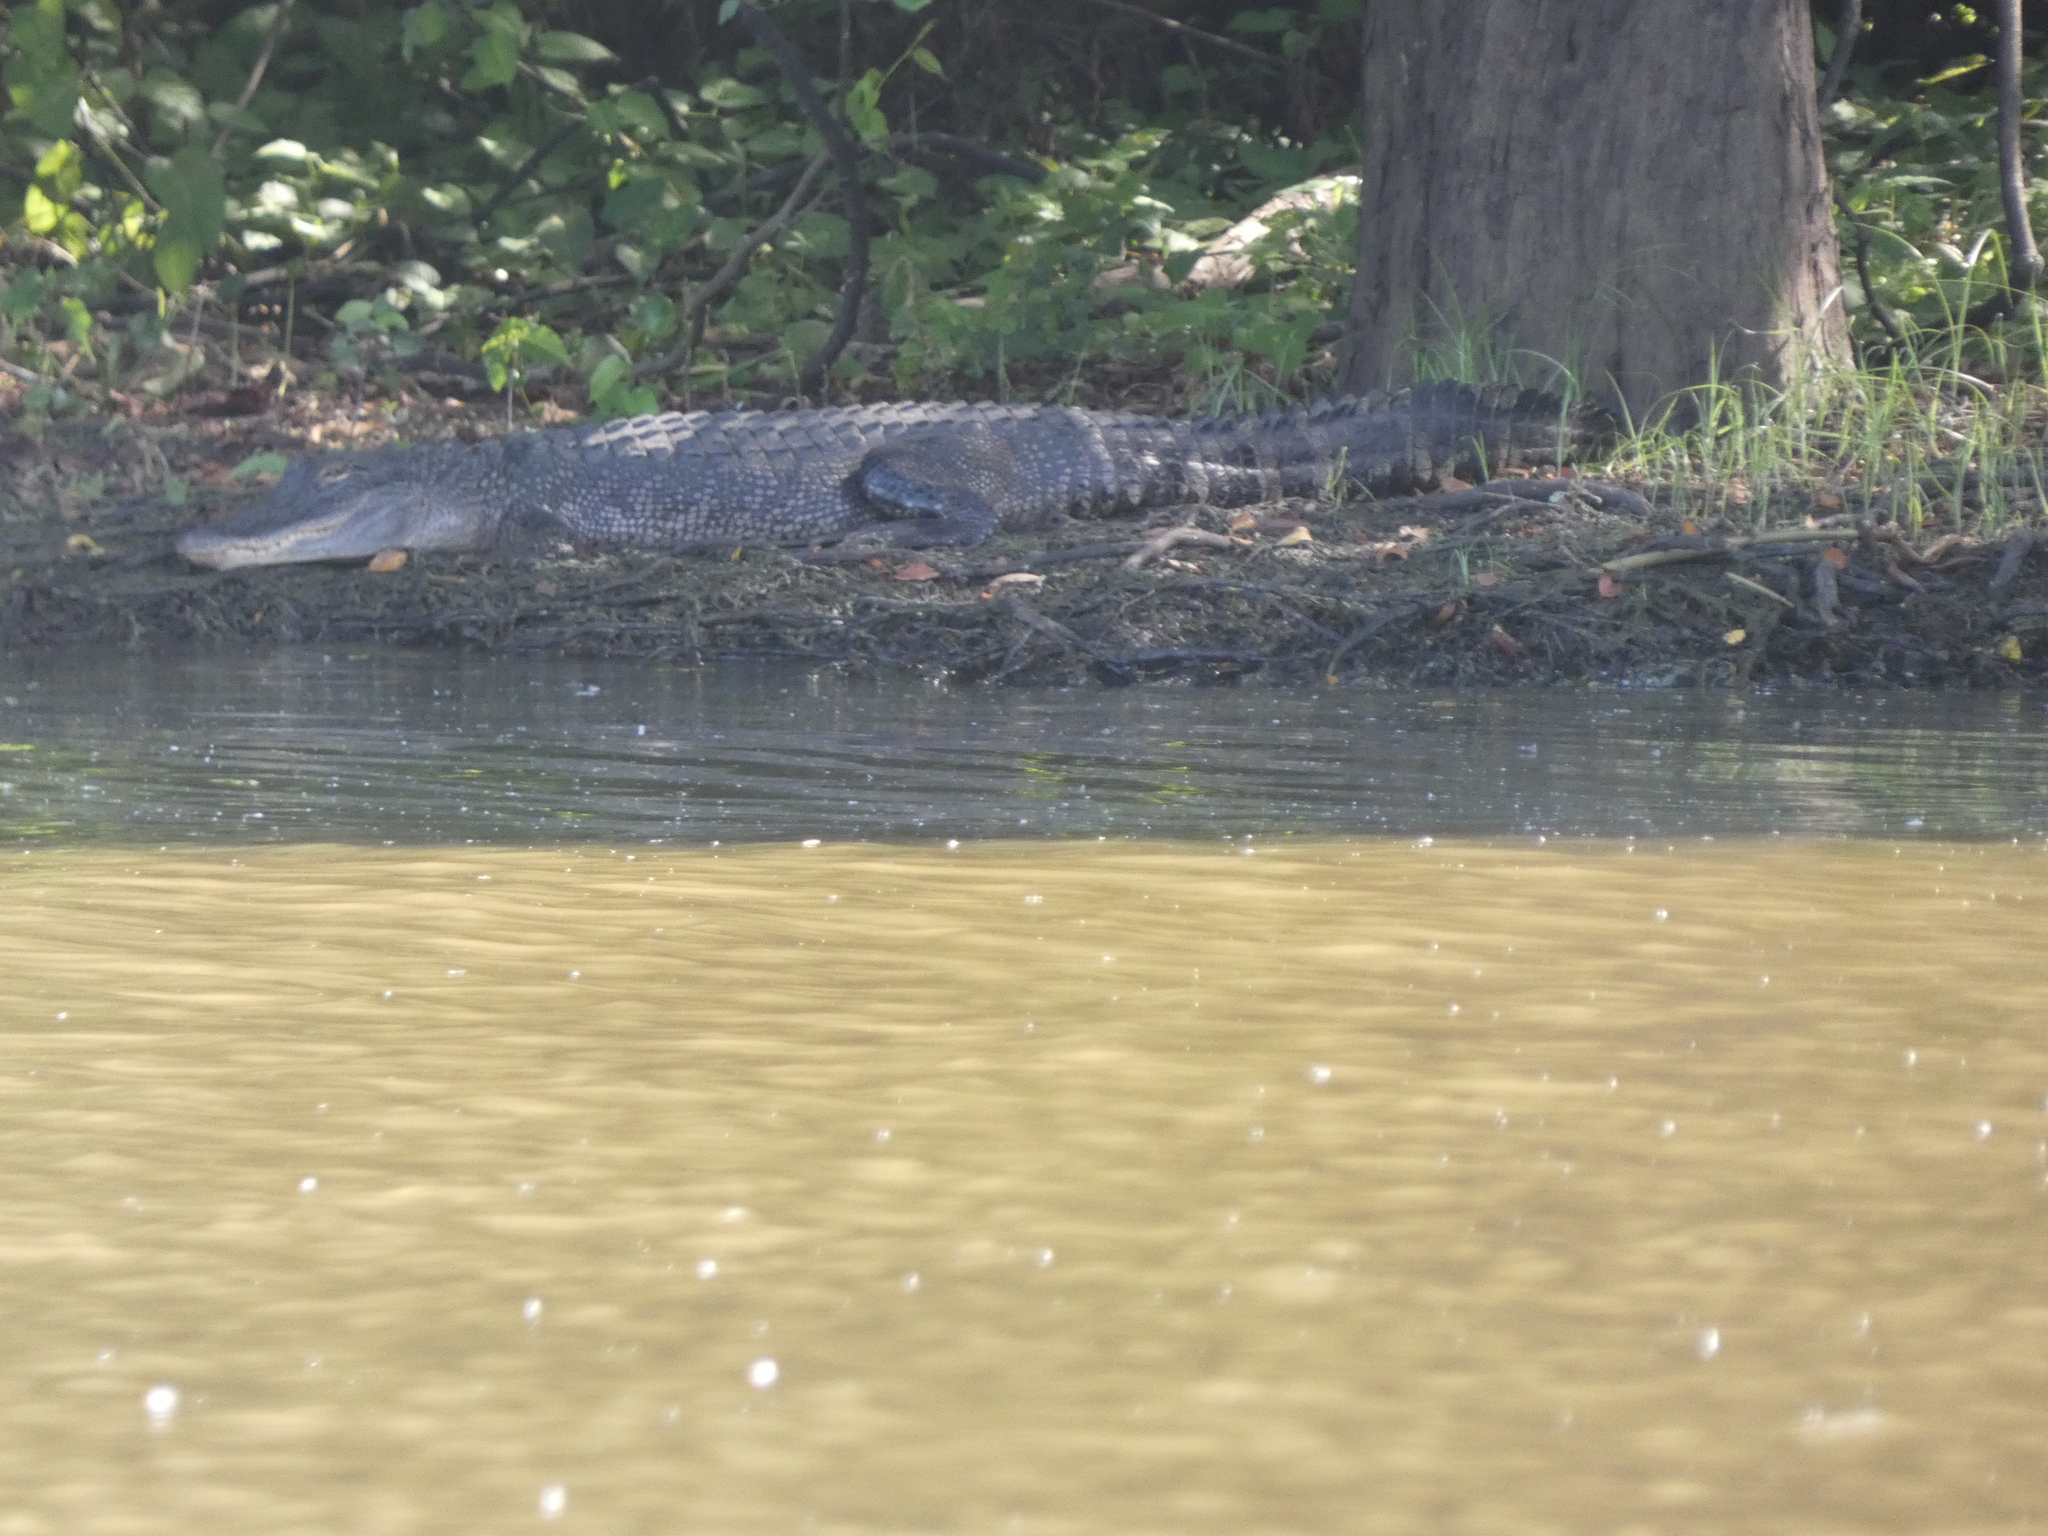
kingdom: Animalia
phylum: Chordata
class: Crocodylia
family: Alligatoridae
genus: Alligator
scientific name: Alligator mississippiensis
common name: American alligator
